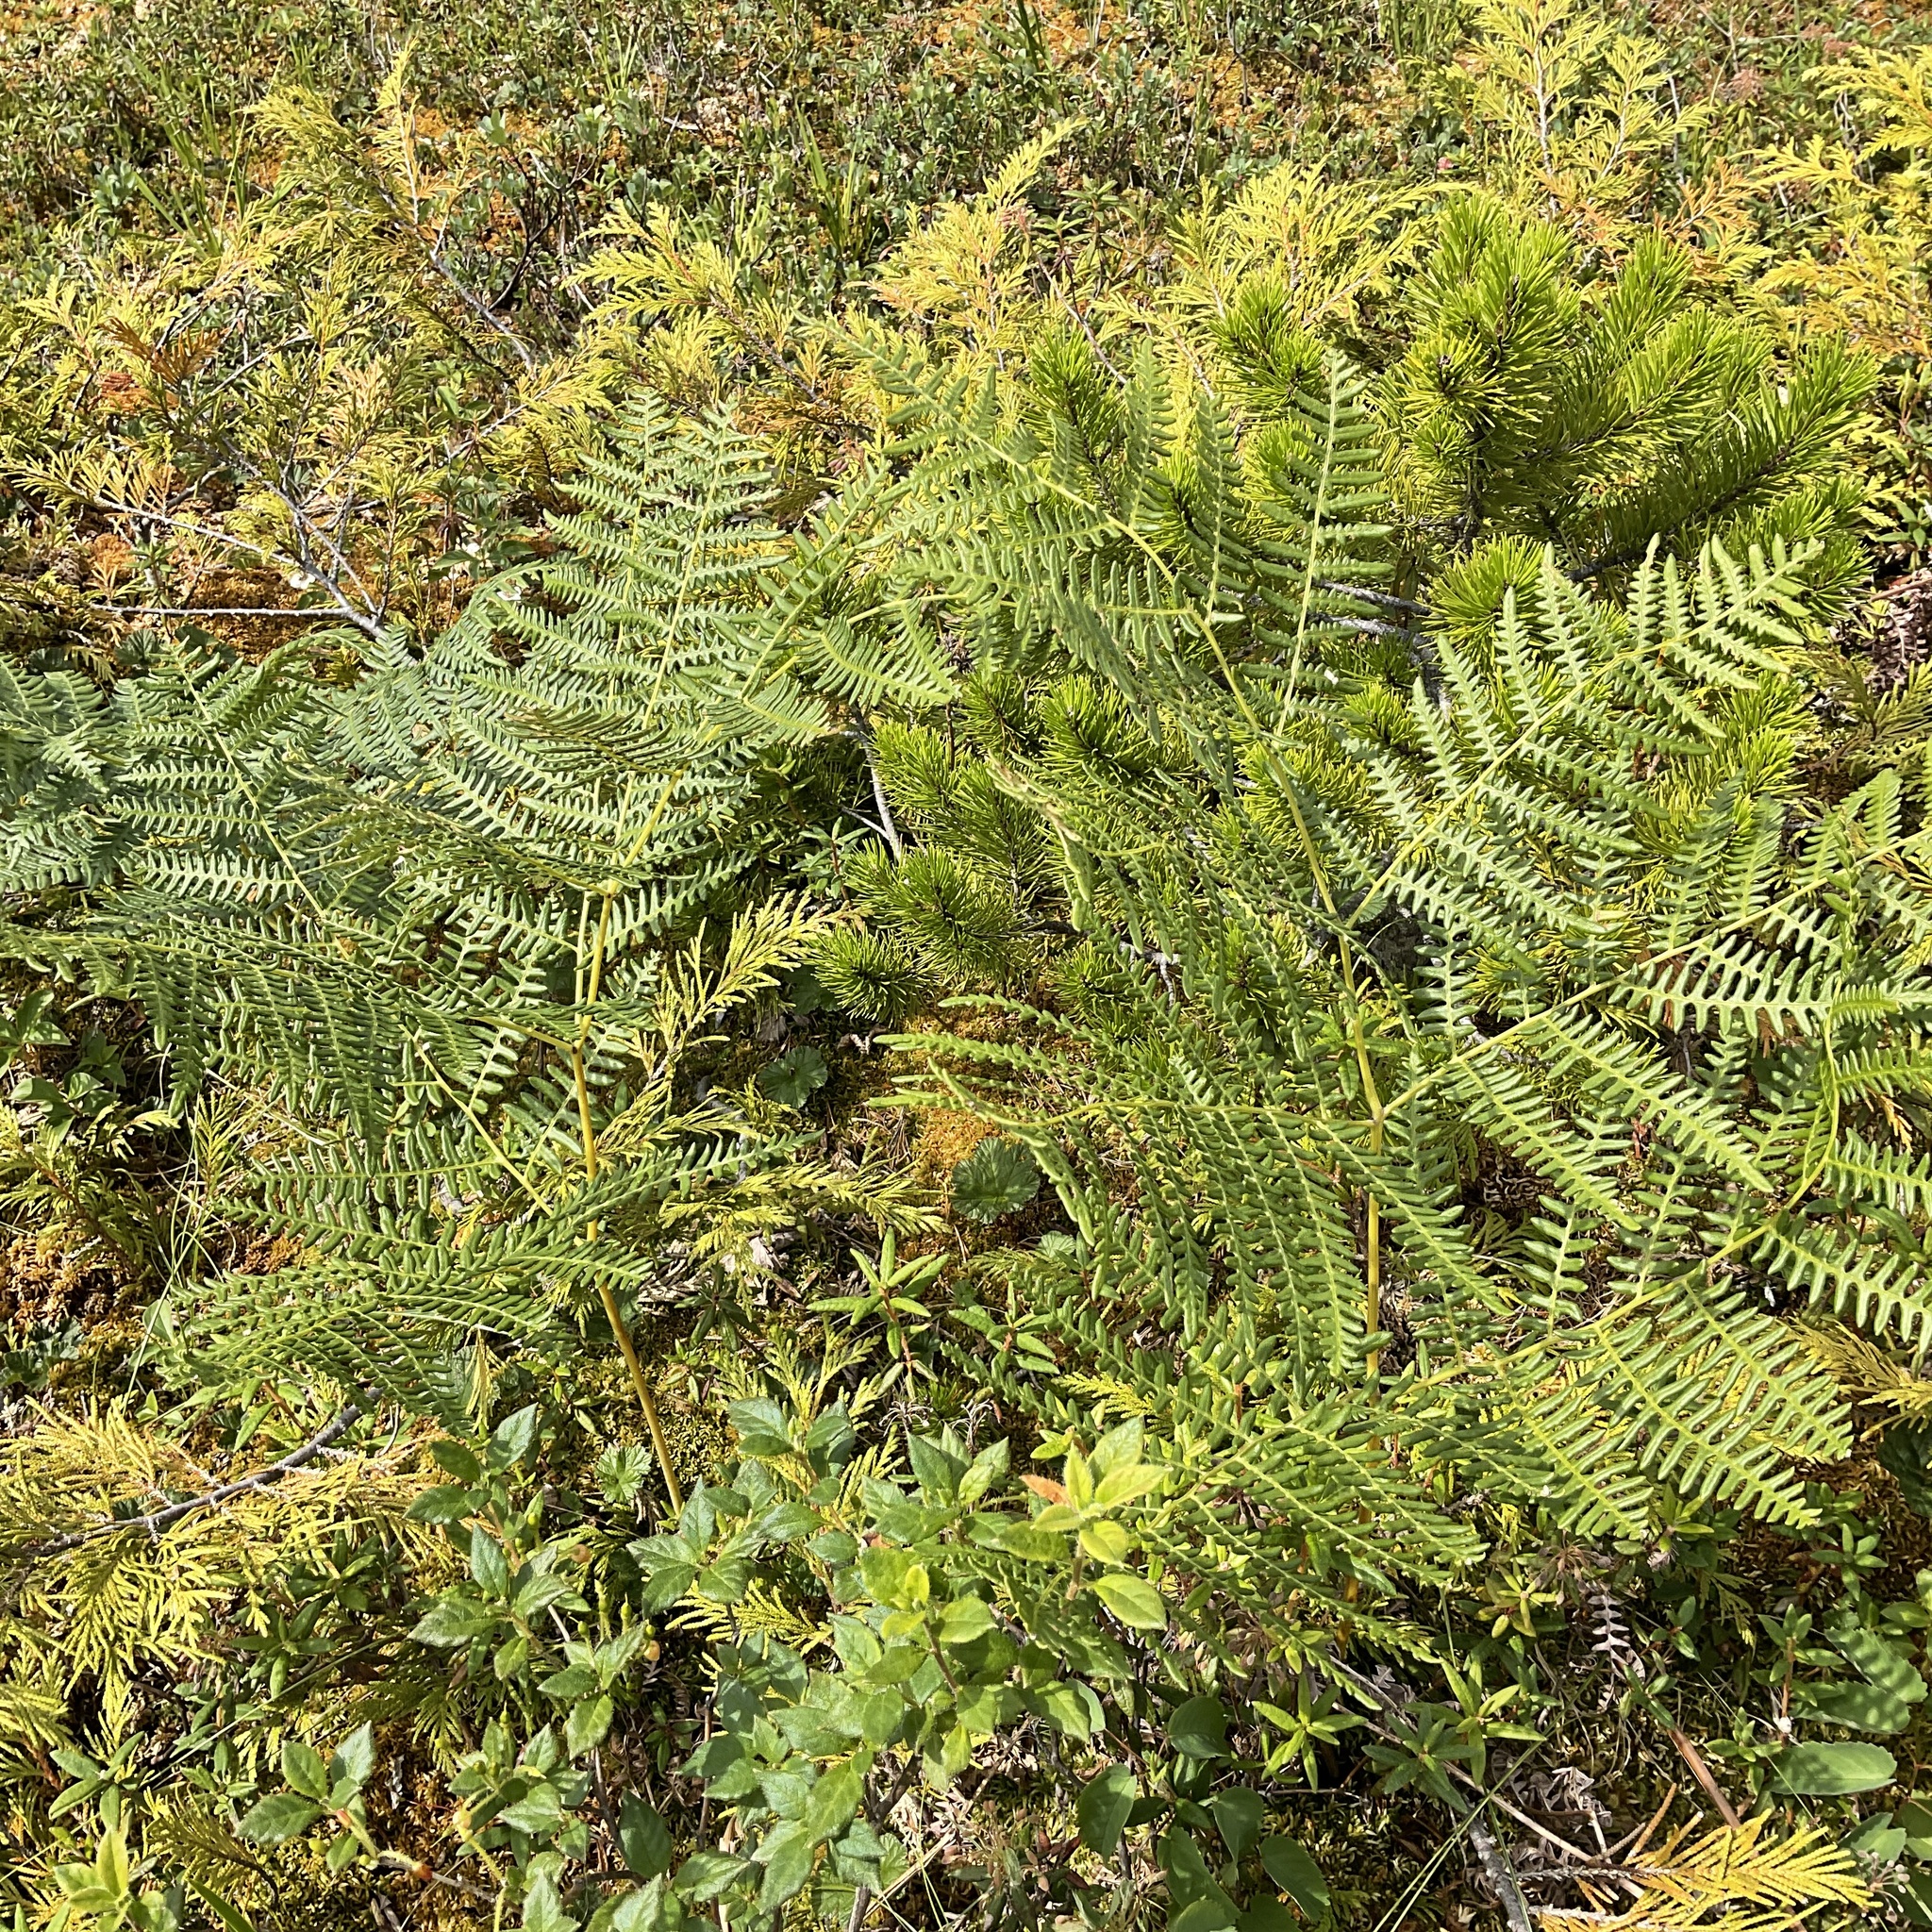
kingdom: Plantae
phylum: Tracheophyta
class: Polypodiopsida
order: Polypodiales
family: Dennstaedtiaceae
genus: Pteridium
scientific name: Pteridium aquilinum
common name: Bracken
